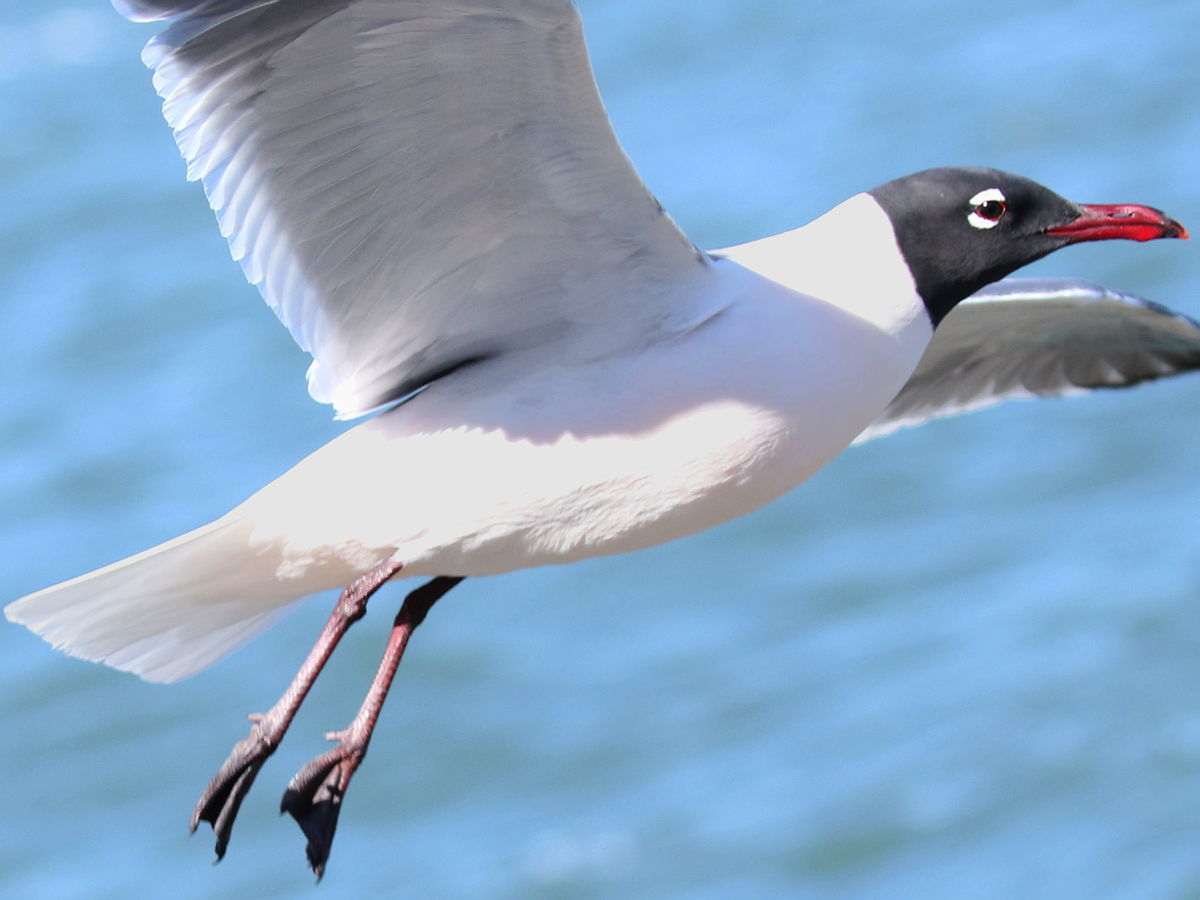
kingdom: Animalia
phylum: Chordata
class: Aves
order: Charadriiformes
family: Laridae
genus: Leucophaeus
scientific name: Leucophaeus atricilla
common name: Laughing gull
